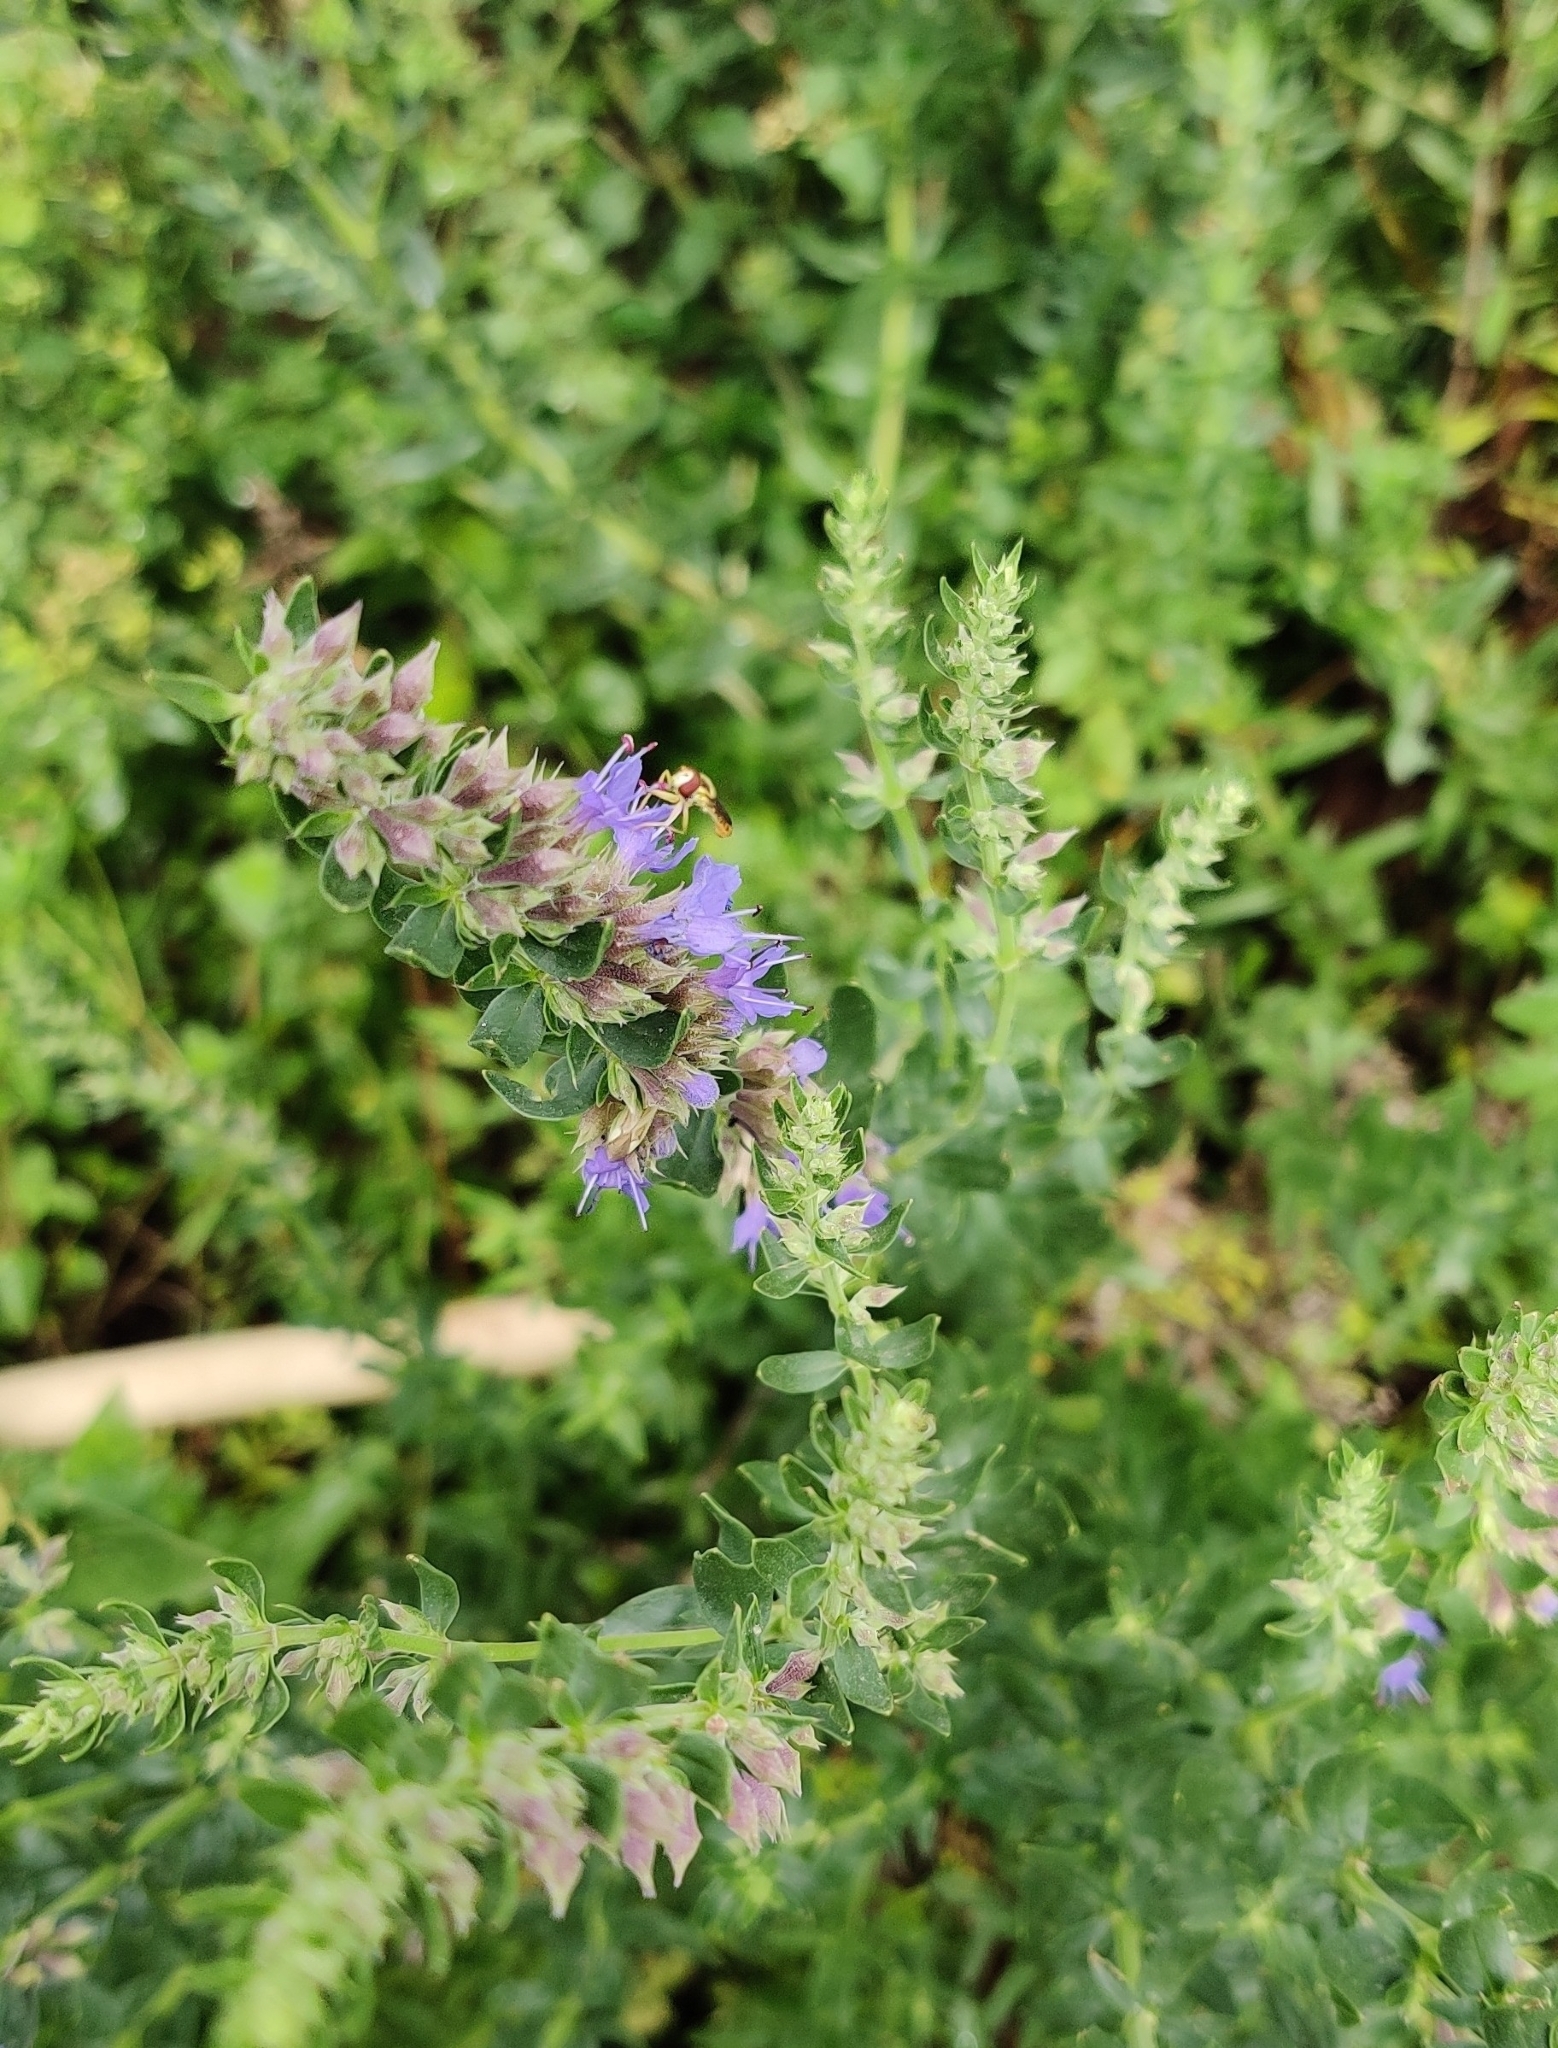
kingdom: Animalia
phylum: Arthropoda
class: Insecta
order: Diptera
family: Syrphidae
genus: Sphaerophoria
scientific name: Sphaerophoria scripta
